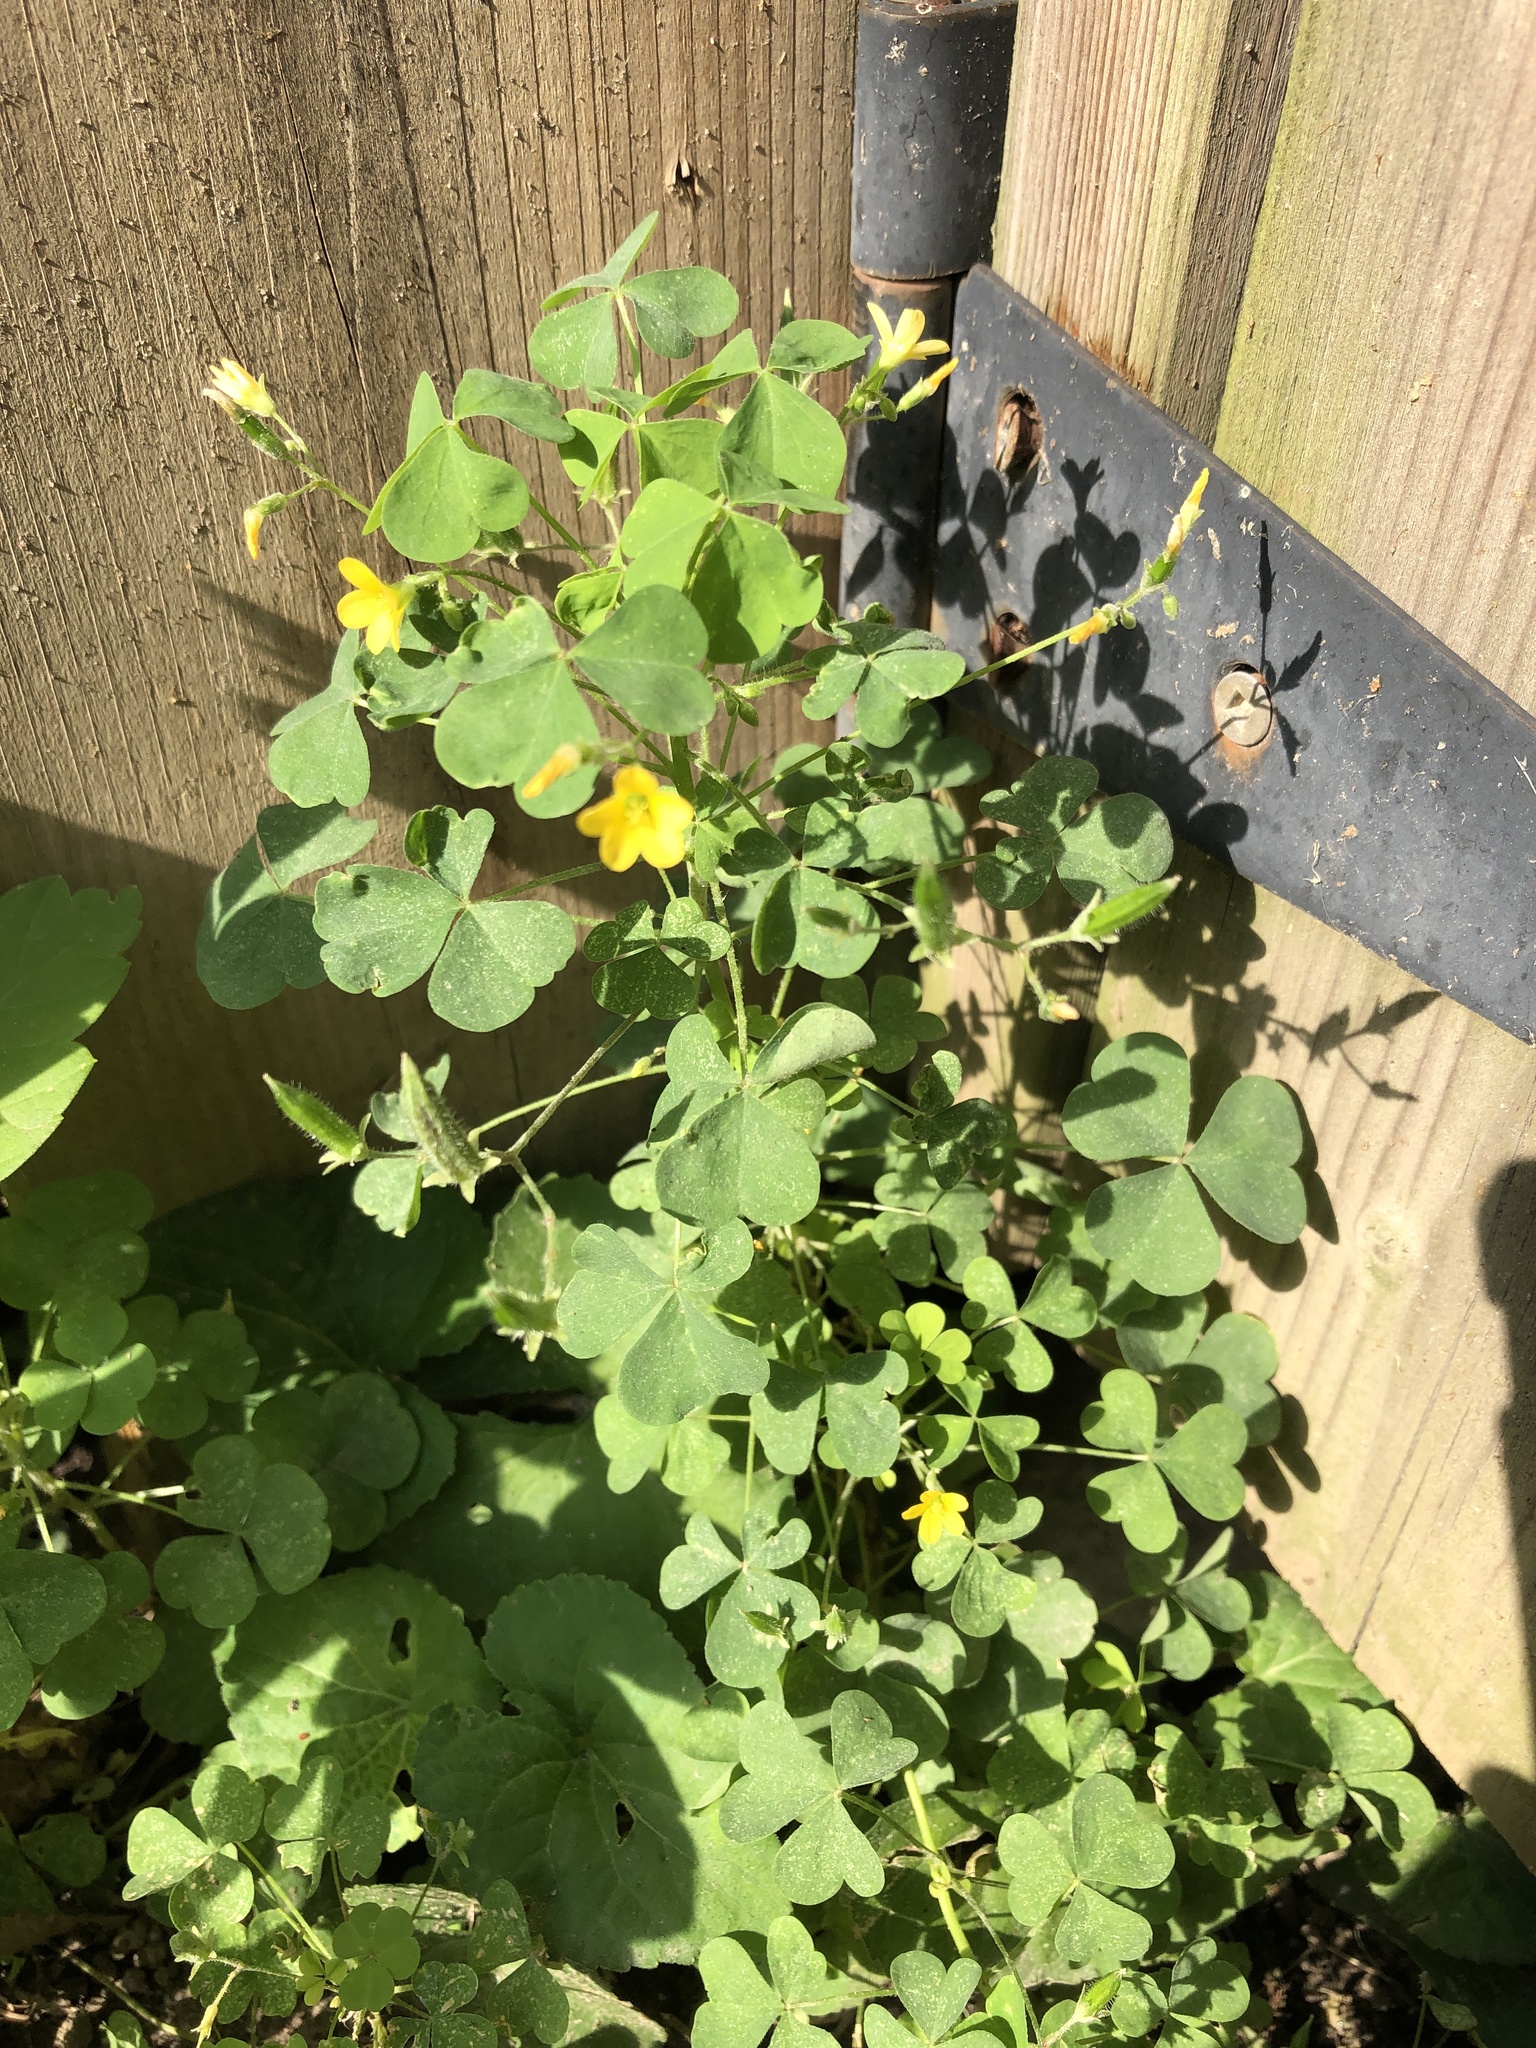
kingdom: Plantae
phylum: Tracheophyta
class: Magnoliopsida
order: Oxalidales
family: Oxalidaceae
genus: Oxalis
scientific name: Oxalis stricta
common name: Upright yellow-sorrel
